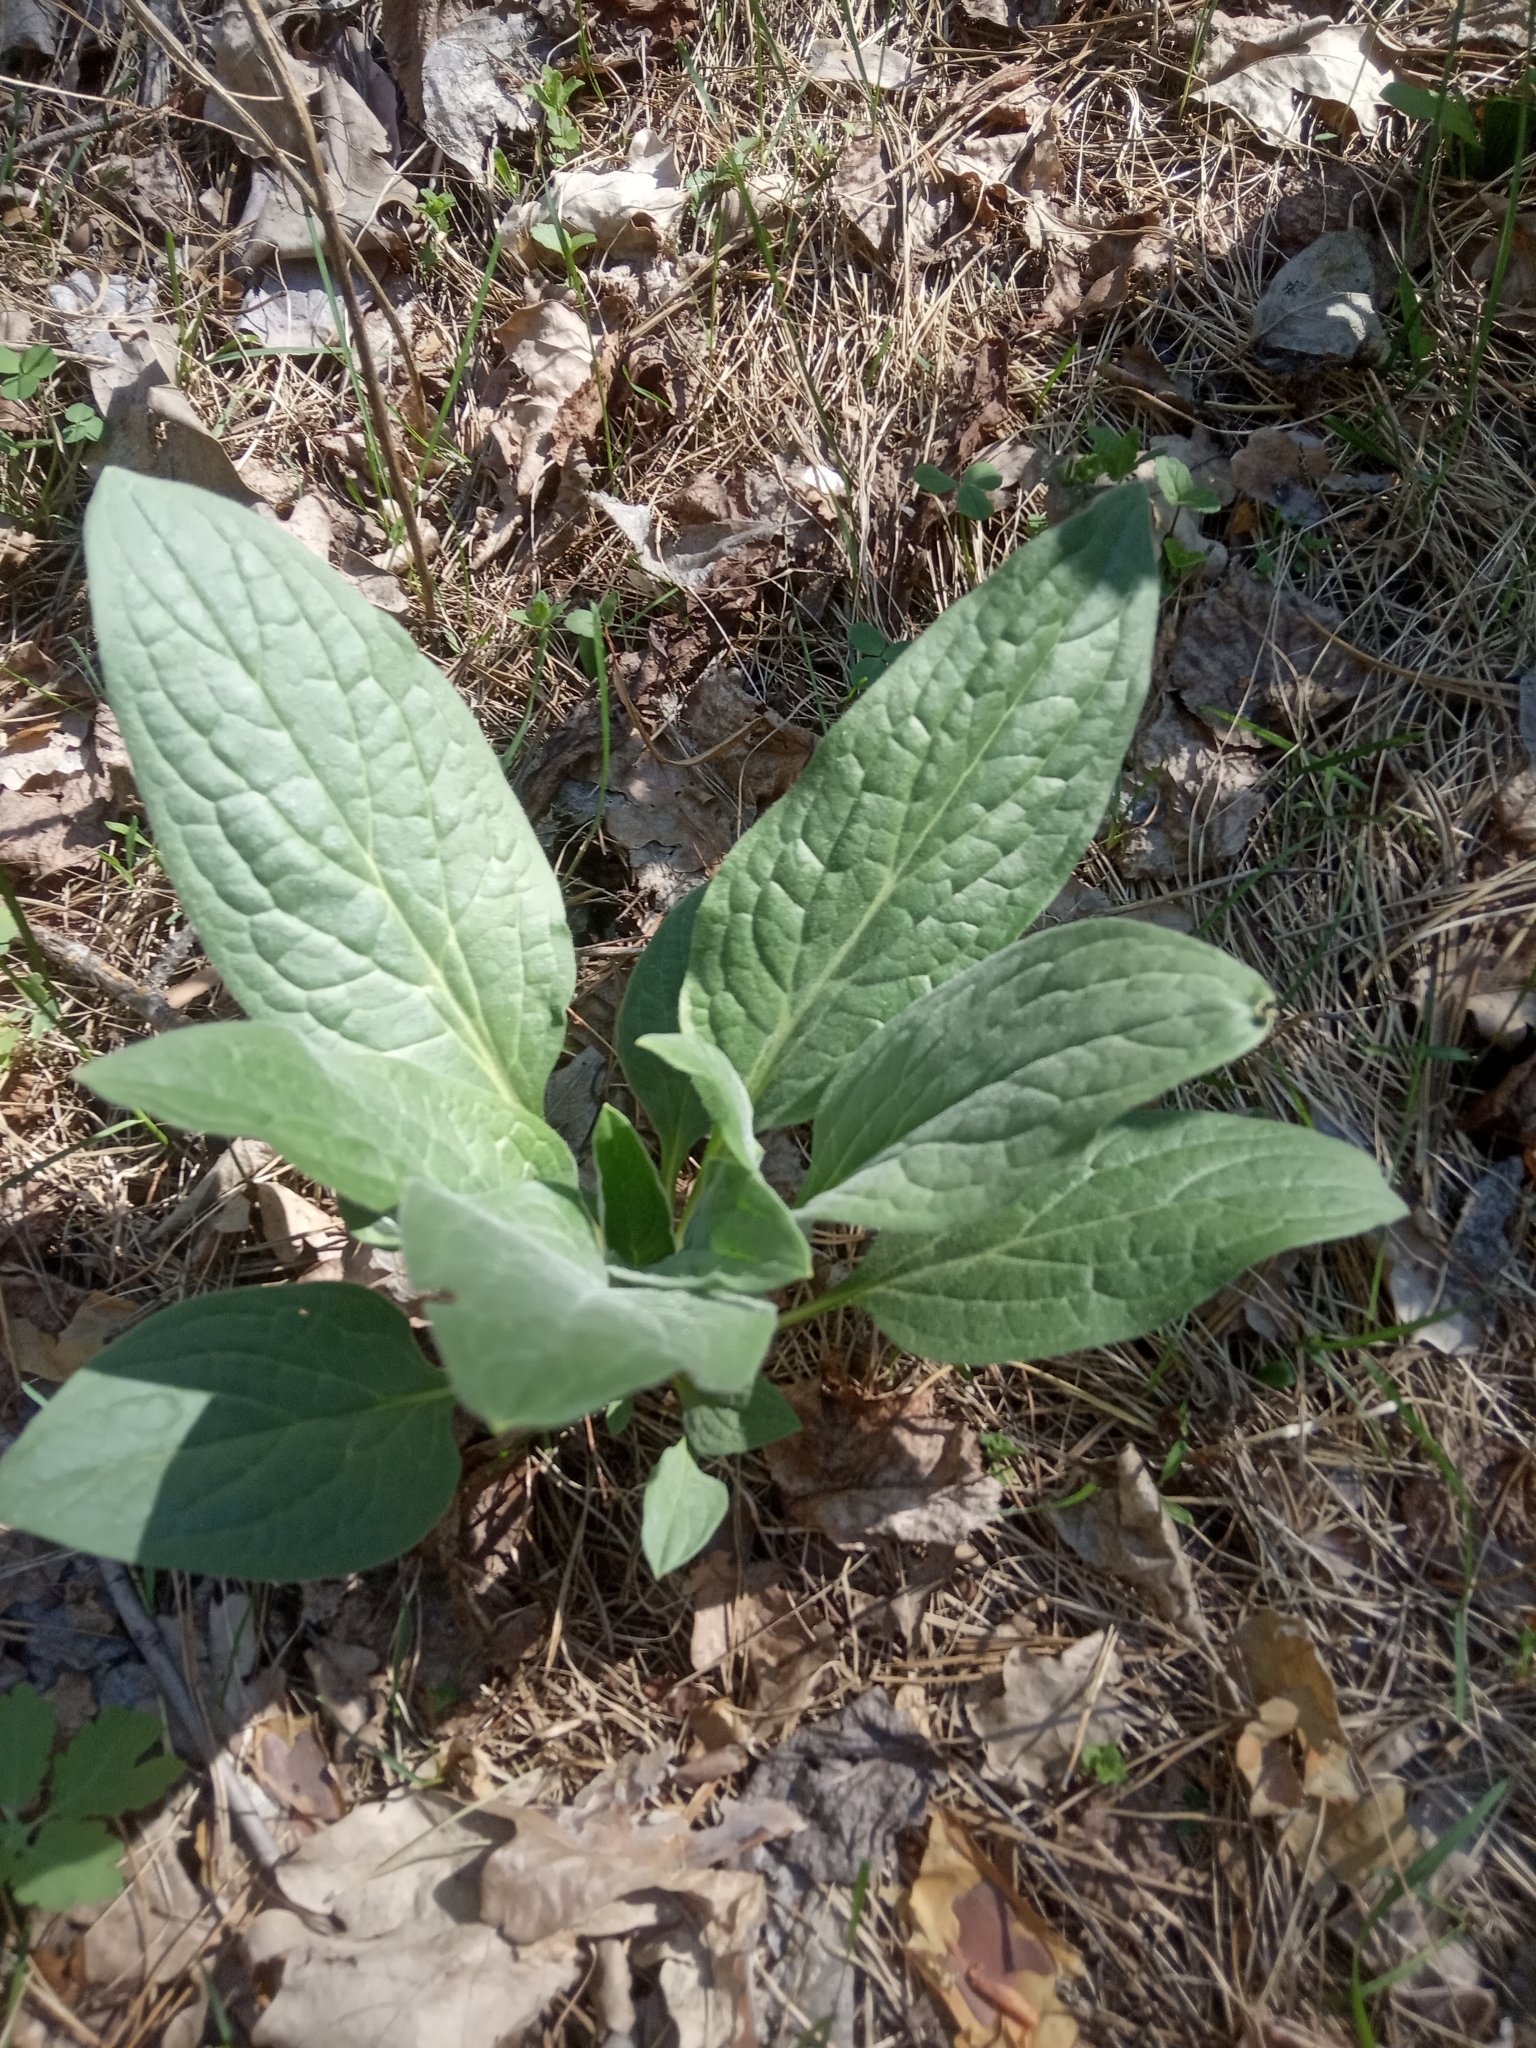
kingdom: Plantae
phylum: Tracheophyta
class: Magnoliopsida
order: Boraginales
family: Boraginaceae
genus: Cynoglossum
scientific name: Cynoglossum officinale
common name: Hound's-tongue
